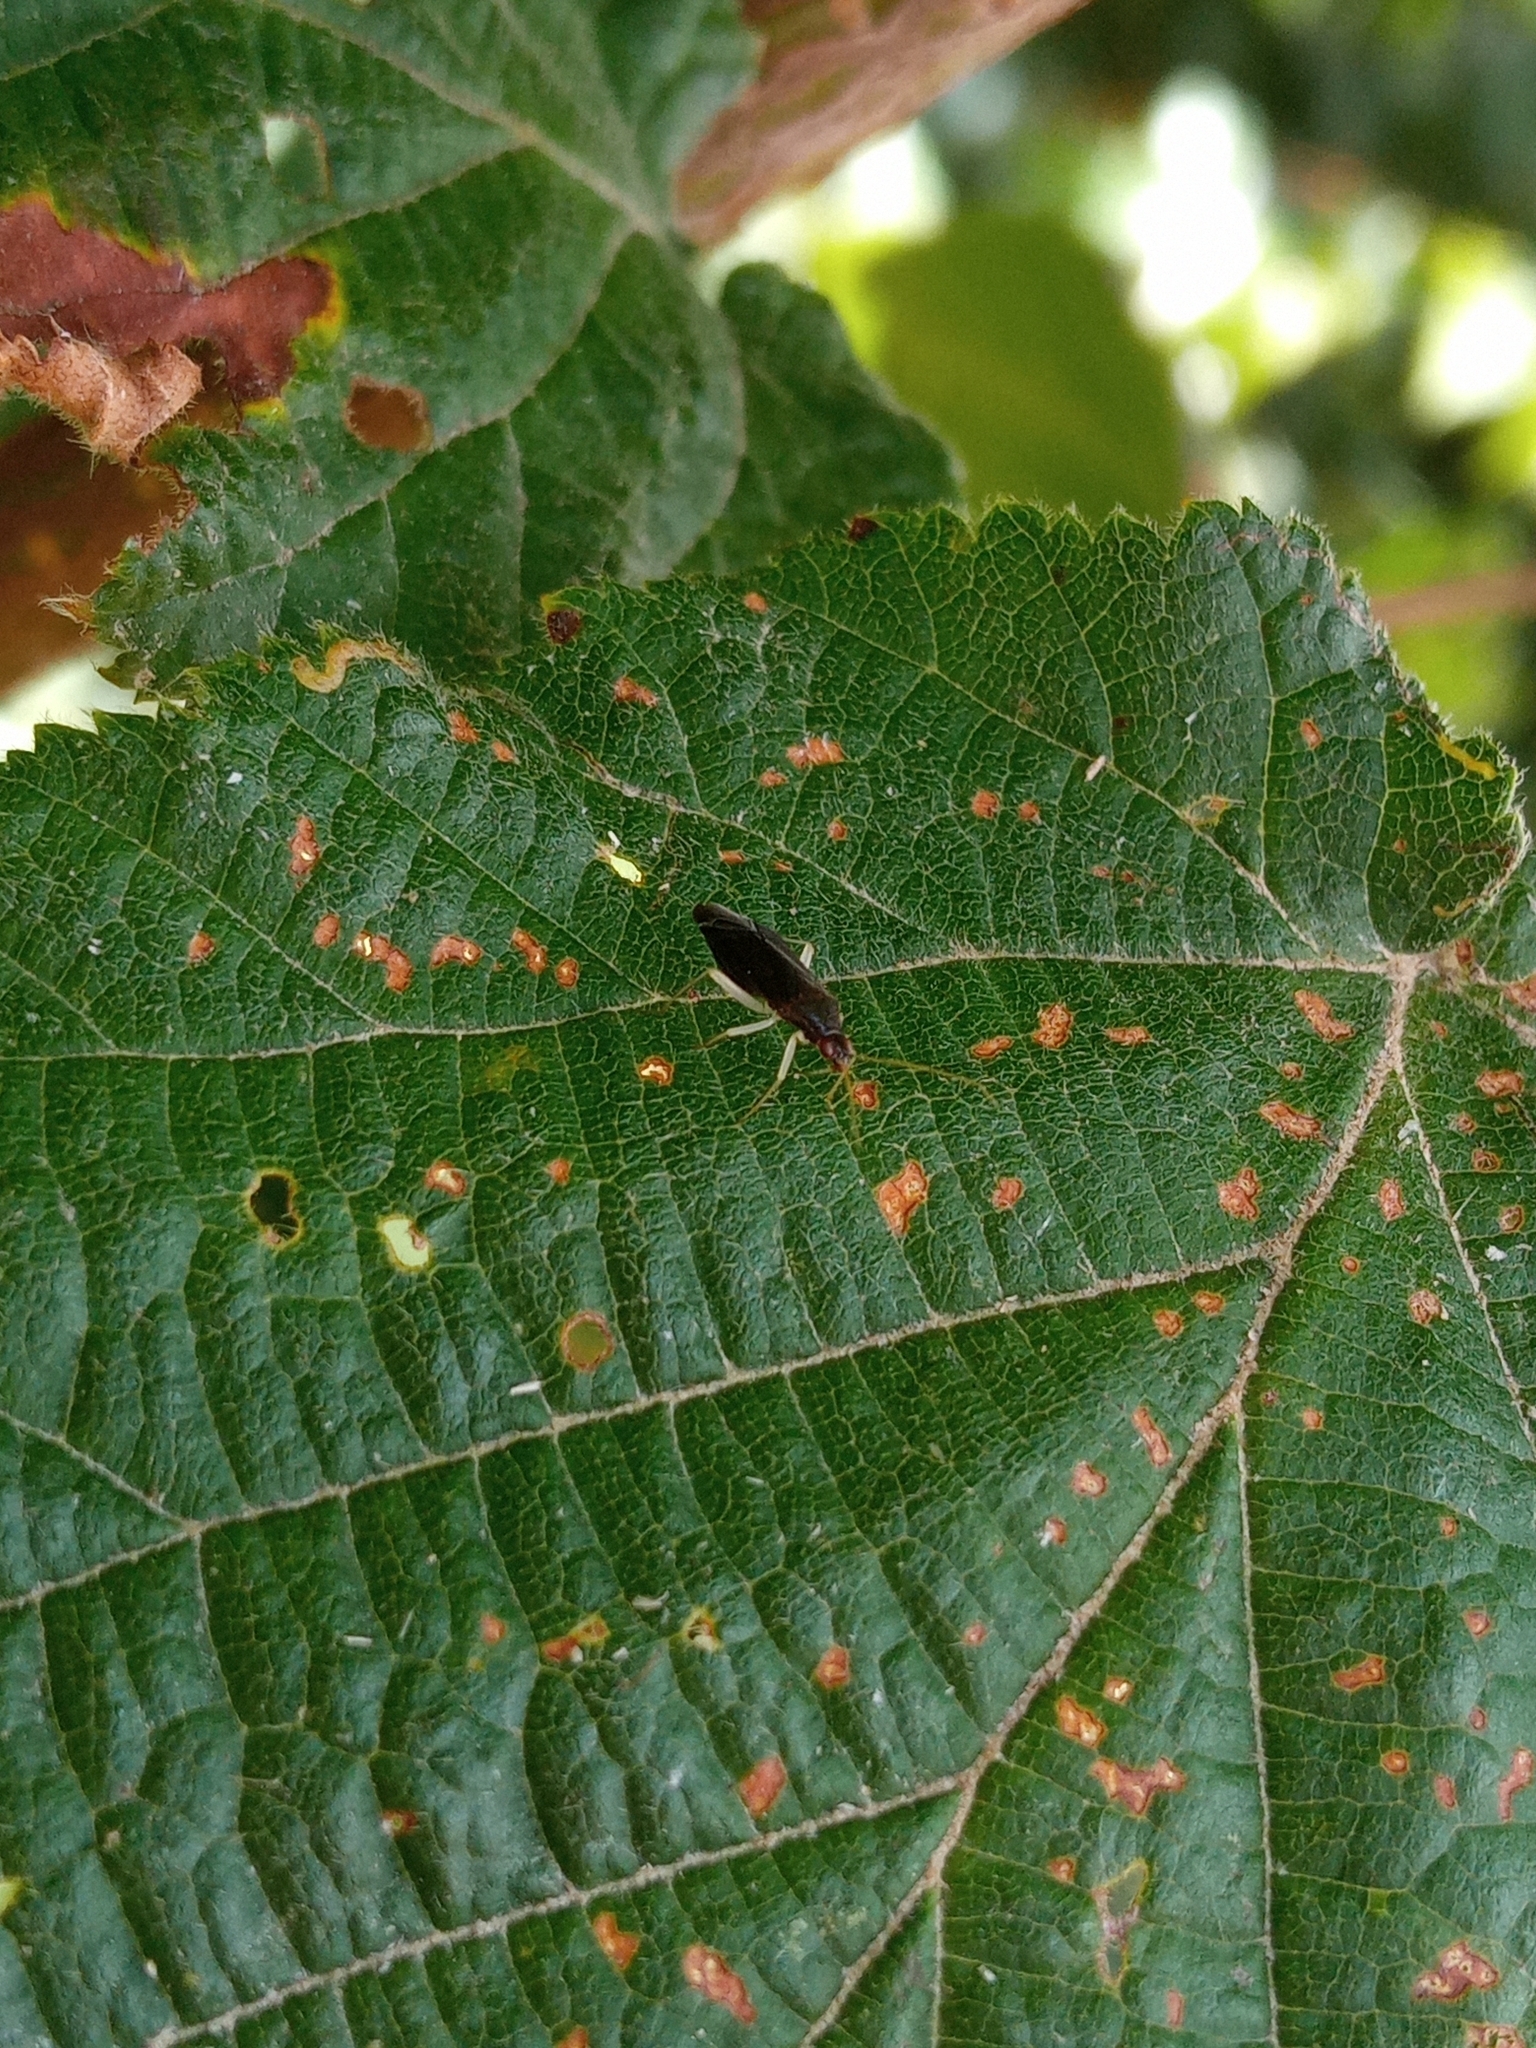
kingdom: Animalia
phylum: Arthropoda
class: Insecta
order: Hemiptera
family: Miridae
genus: Phylus
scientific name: Phylus coryli
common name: Plant bug
